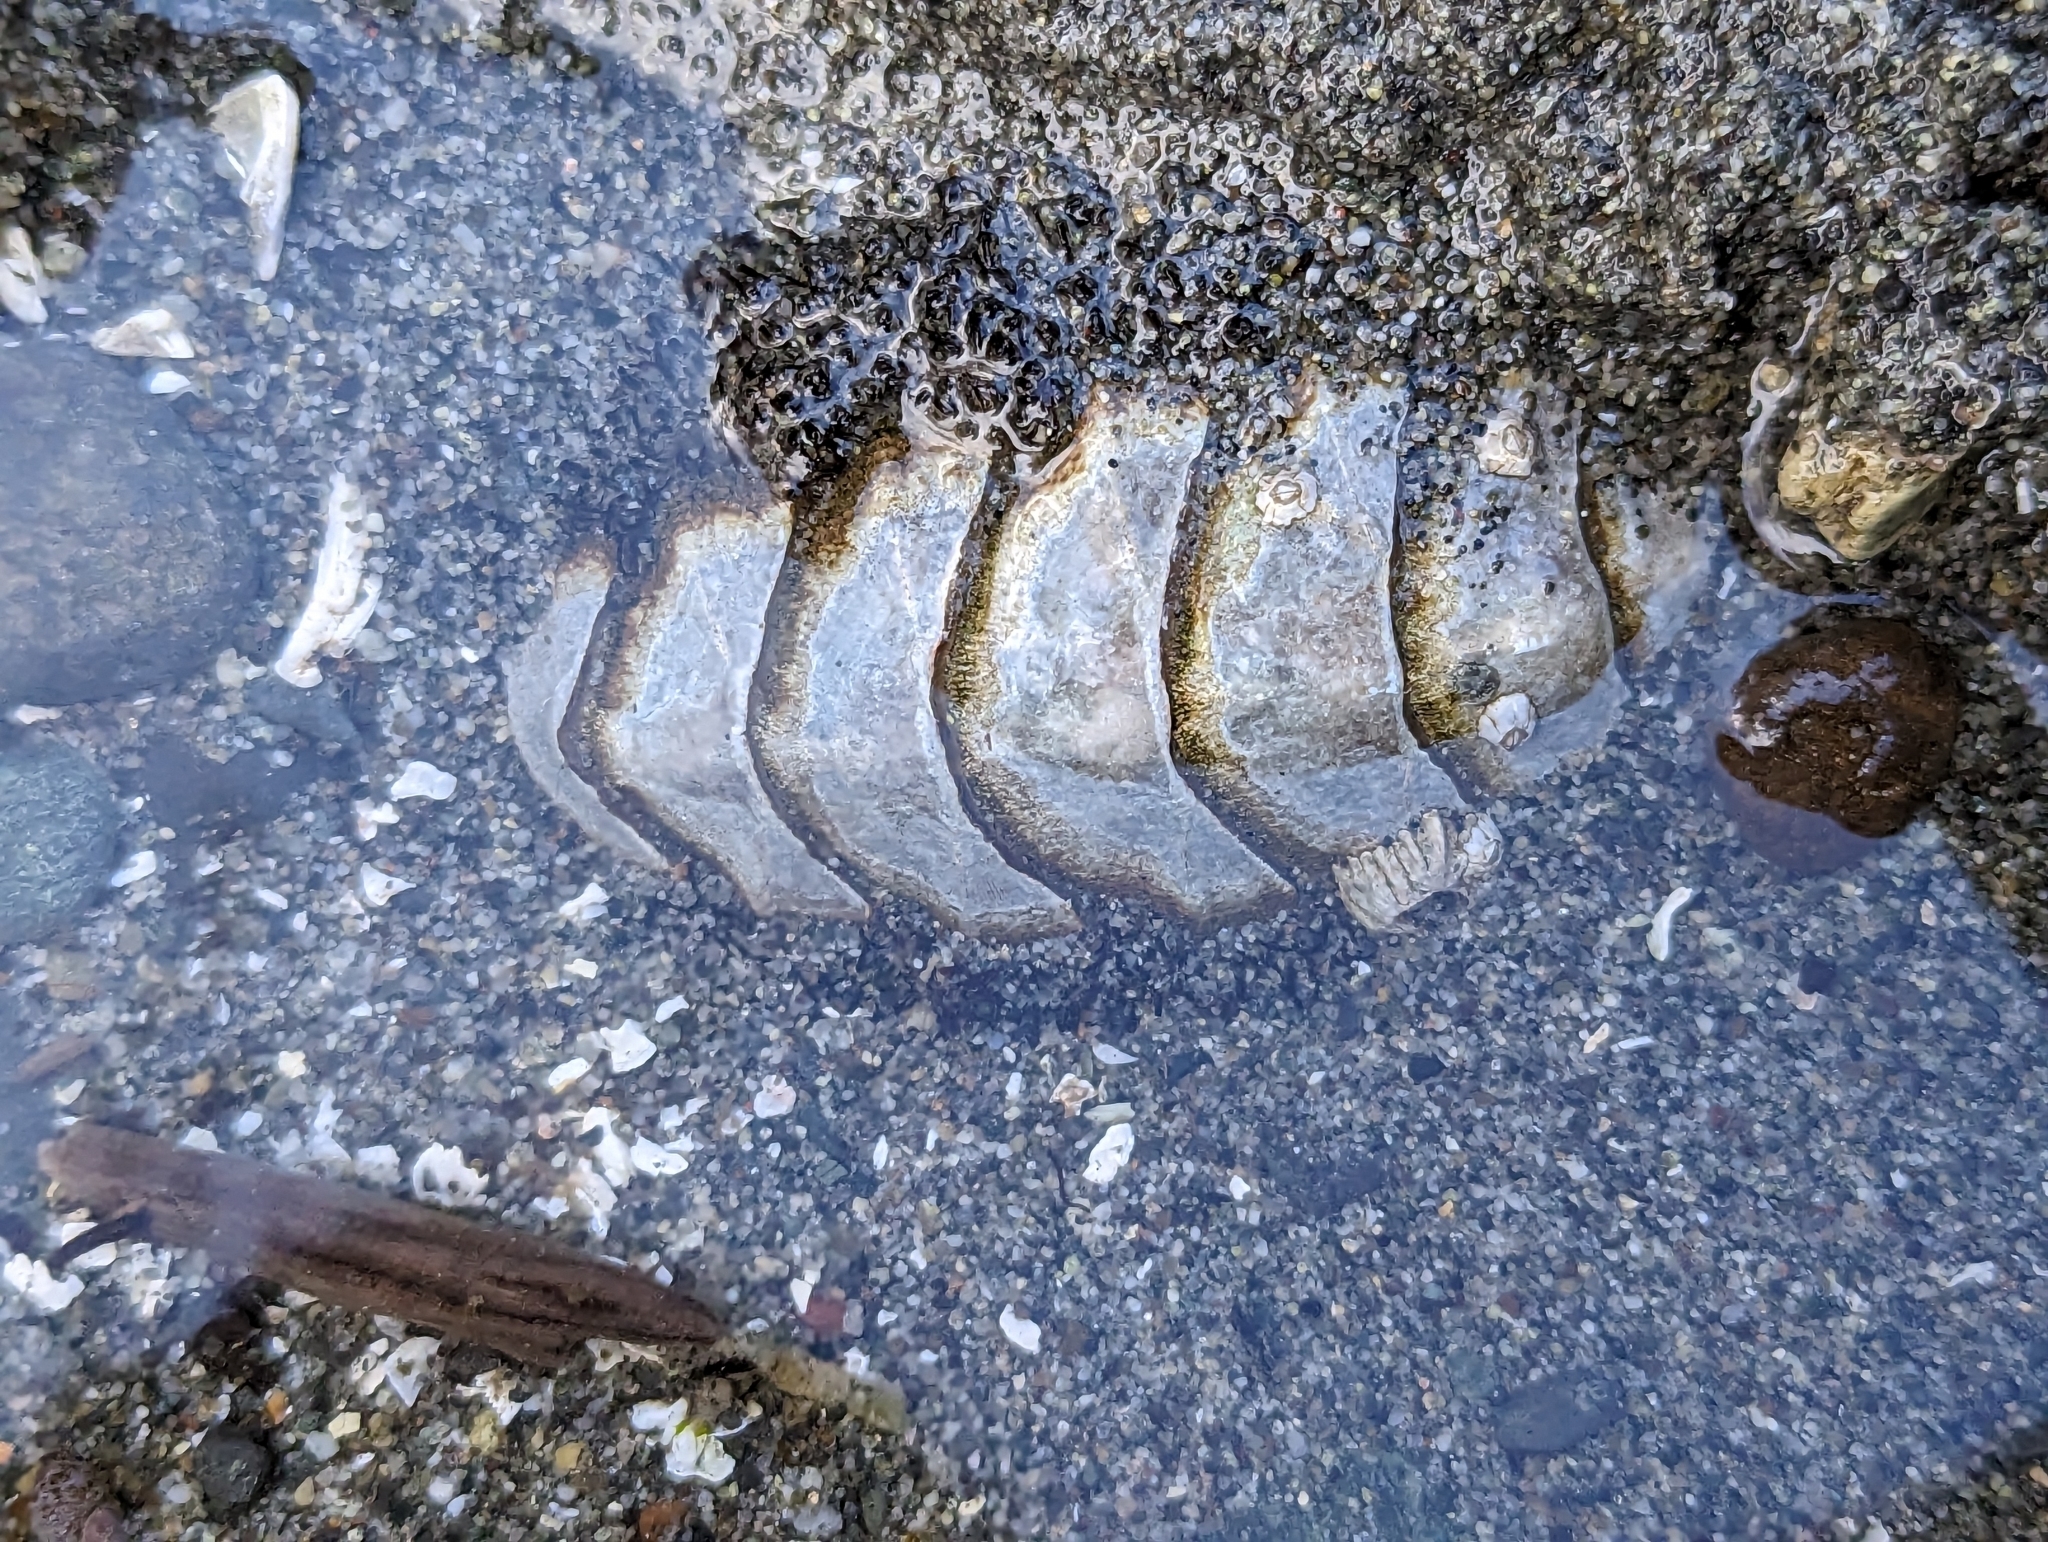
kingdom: Animalia
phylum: Mollusca
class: Polyplacophora
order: Chitonida
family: Mopaliidae
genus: Mopalia
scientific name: Mopalia muscosa
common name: Mossy chiton
